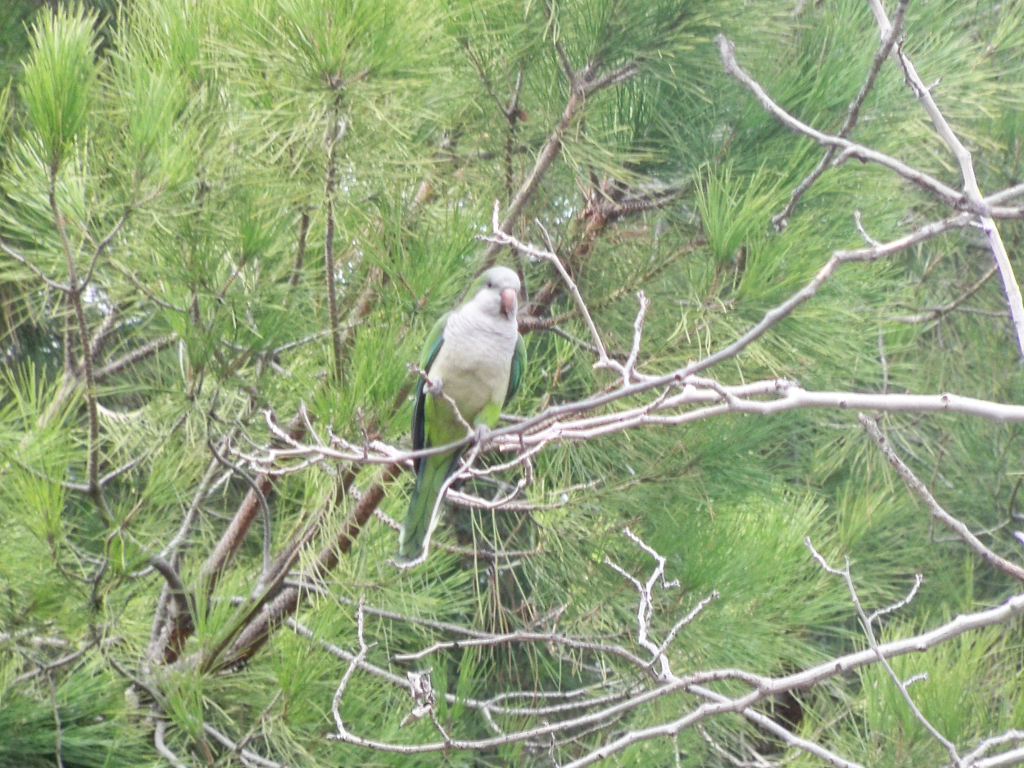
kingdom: Animalia
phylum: Chordata
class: Aves
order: Psittaciformes
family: Psittacidae
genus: Myiopsitta
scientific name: Myiopsitta monachus
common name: Monk parakeet
